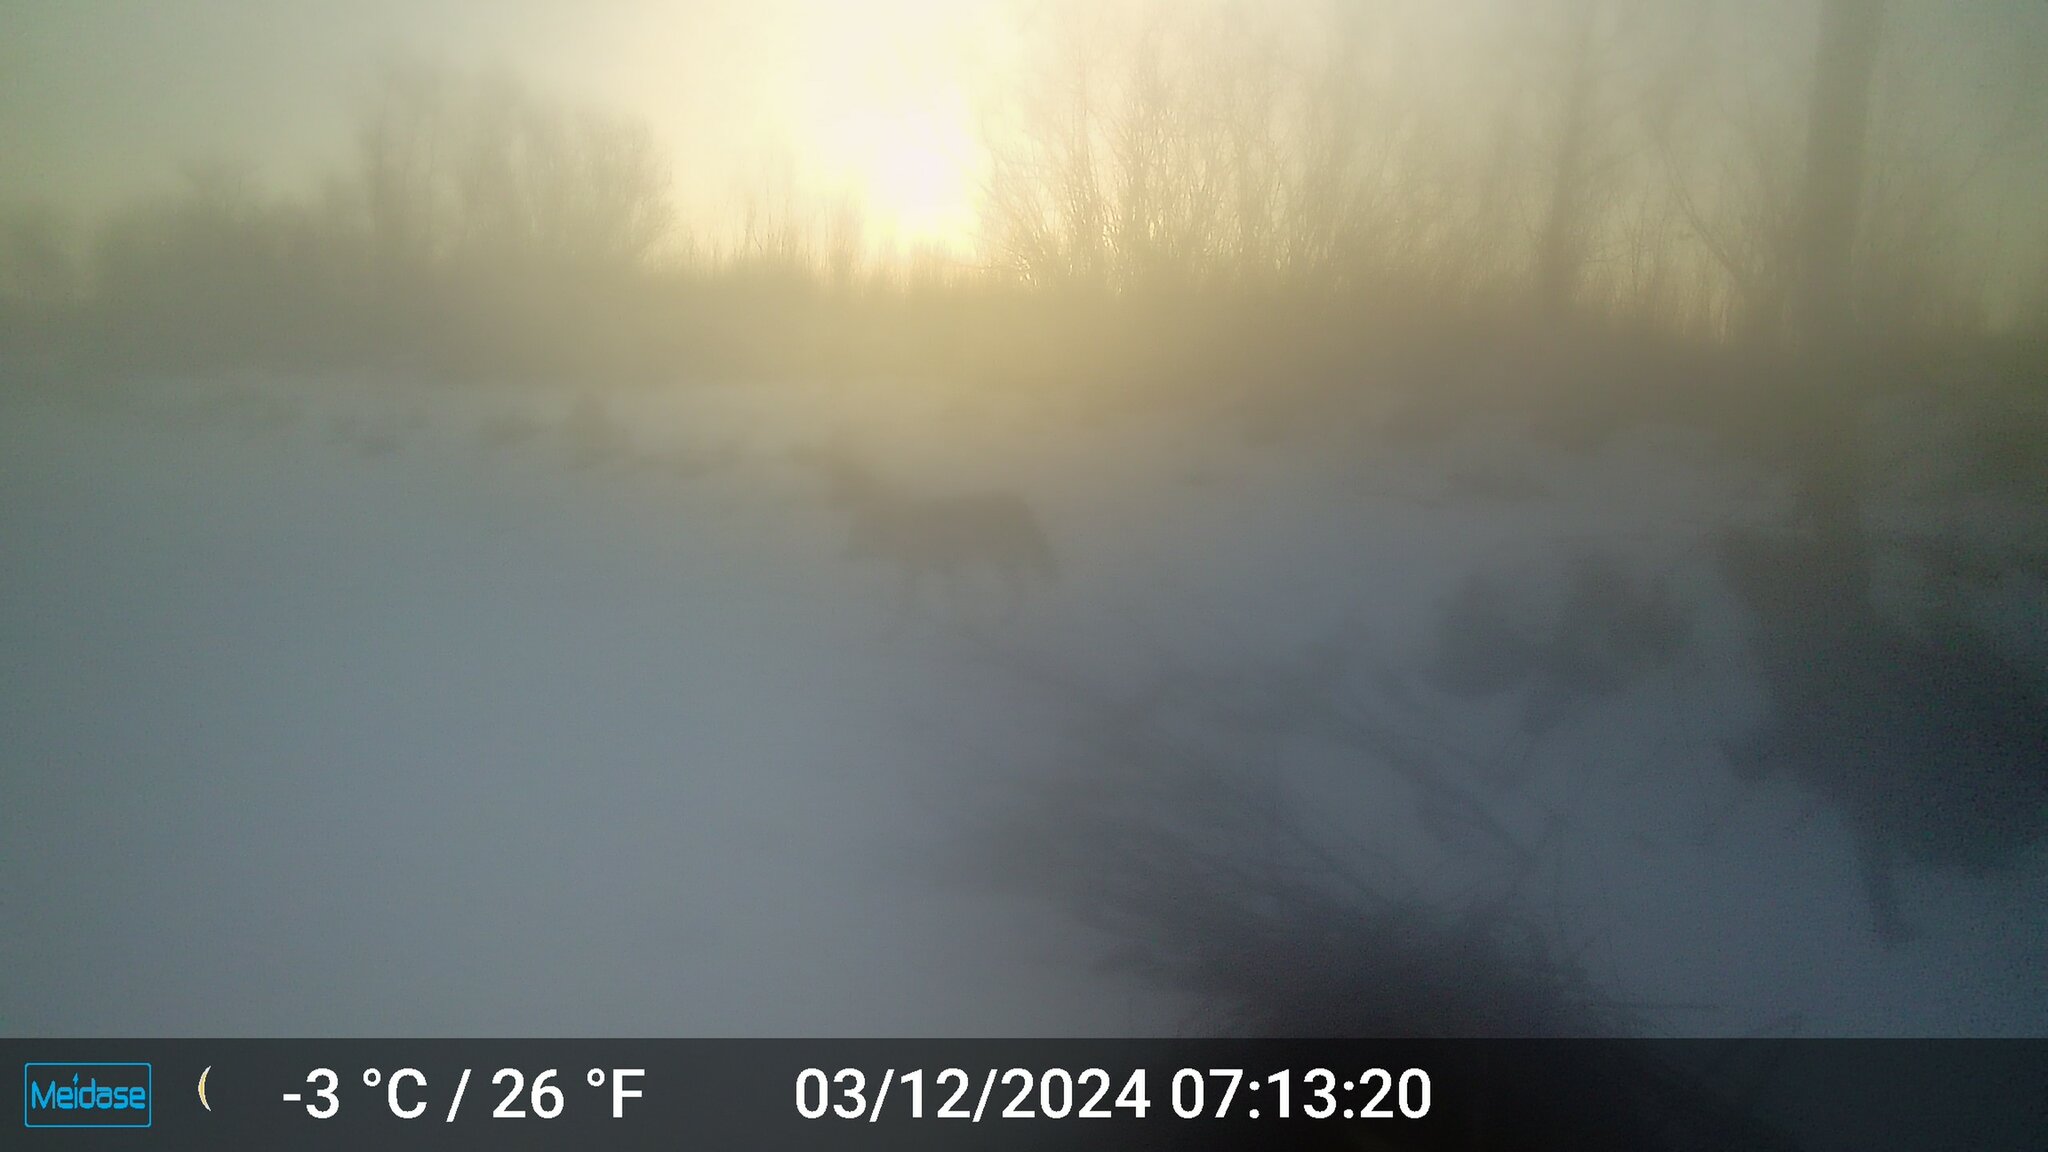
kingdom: Animalia
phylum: Chordata
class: Mammalia
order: Carnivora
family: Canidae
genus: Canis
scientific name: Canis latrans
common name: Coyote
